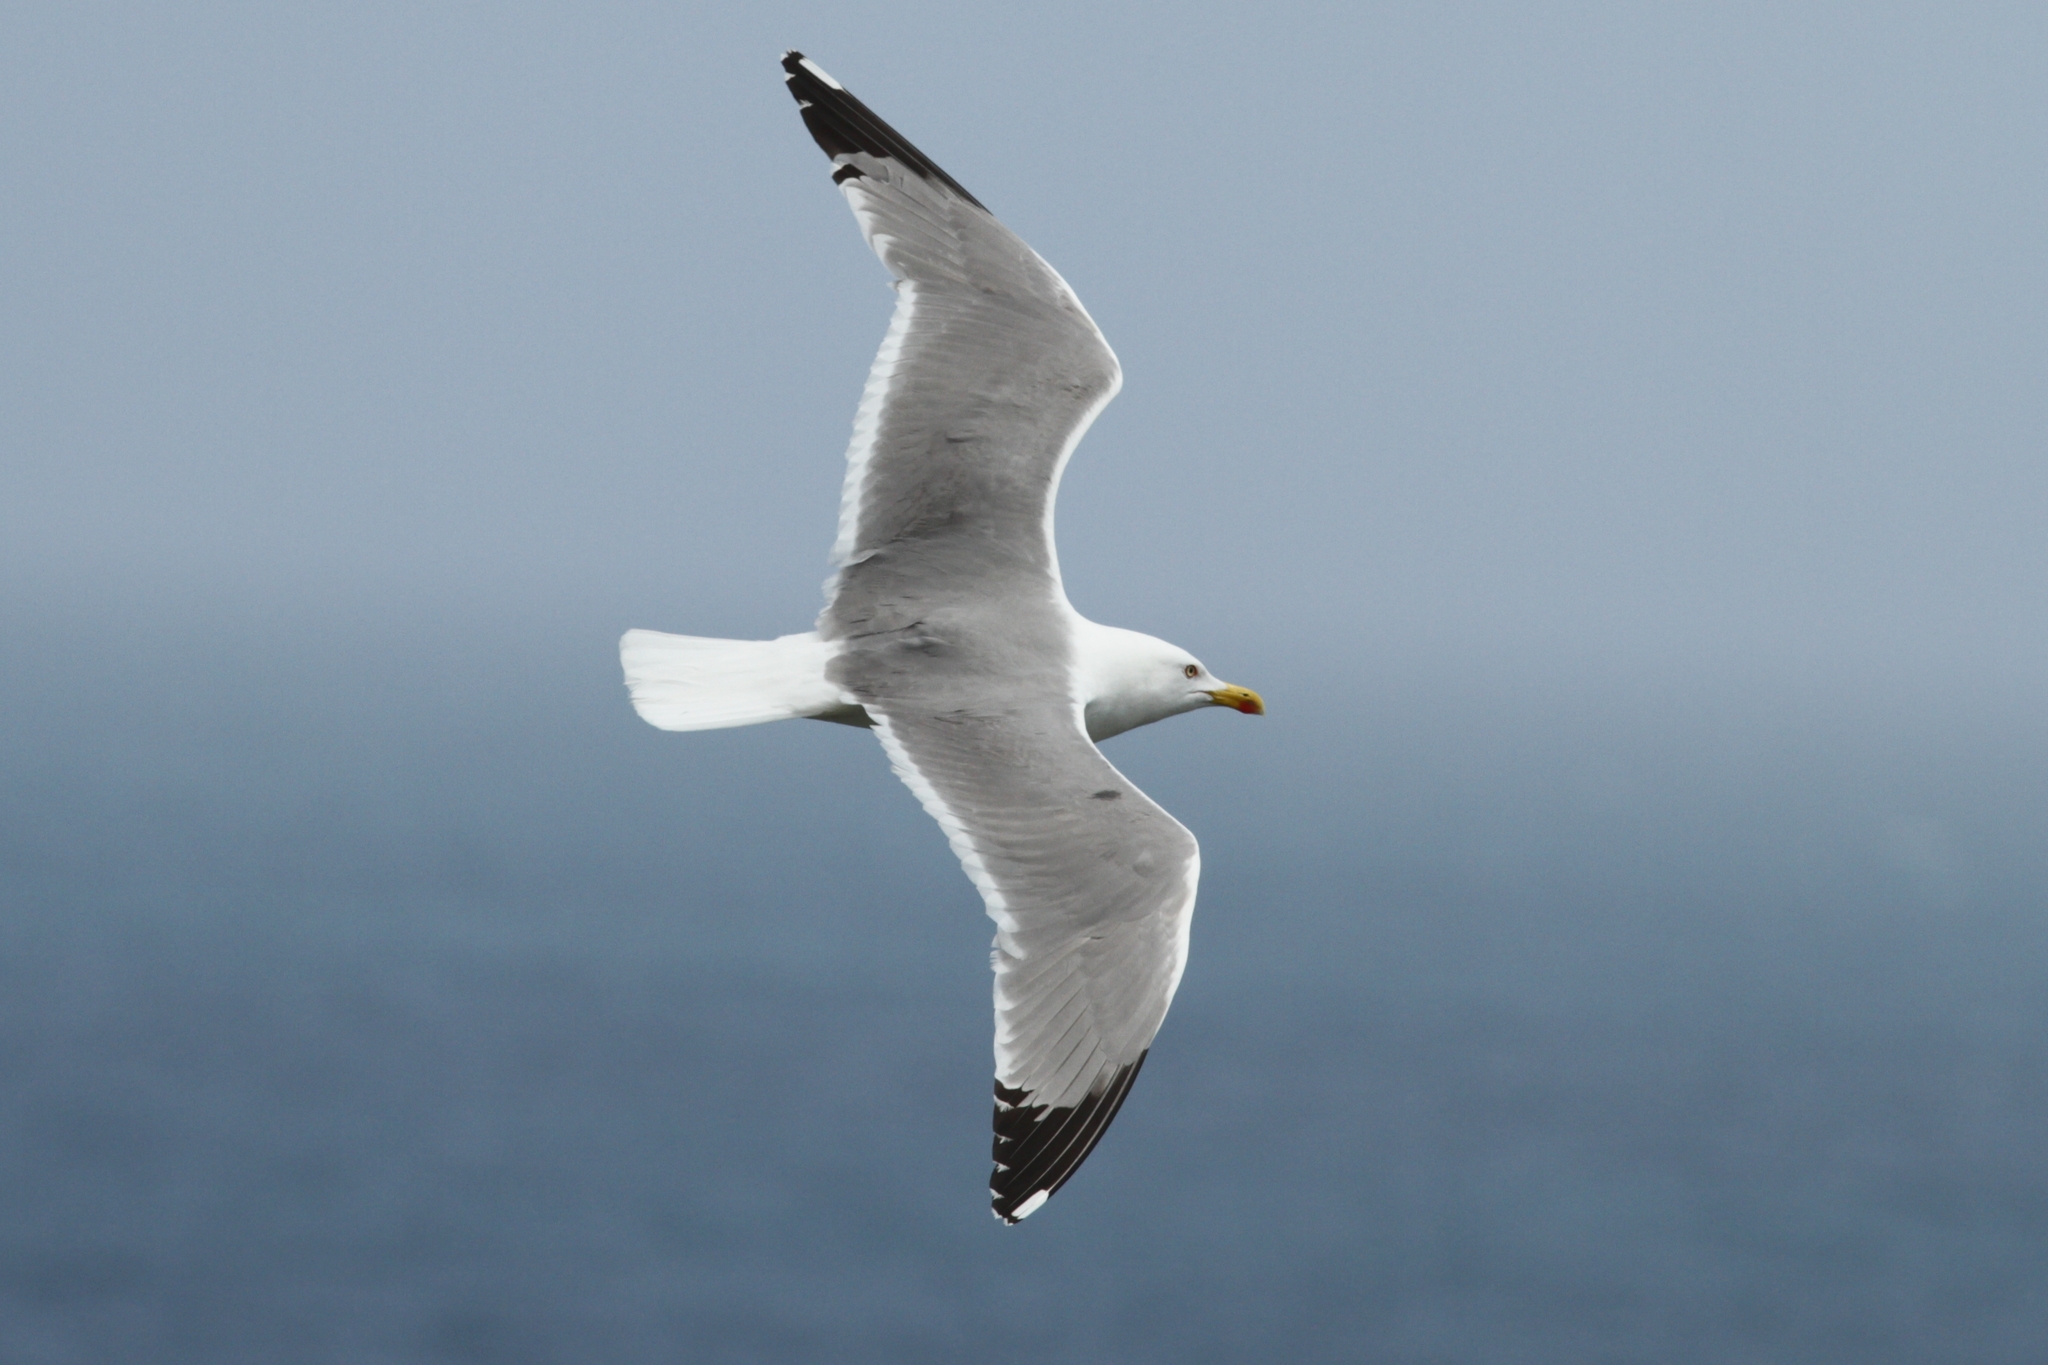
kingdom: Animalia
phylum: Chordata
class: Aves
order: Charadriiformes
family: Laridae
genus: Larus
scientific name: Larus michahellis
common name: Yellow-legged gull
